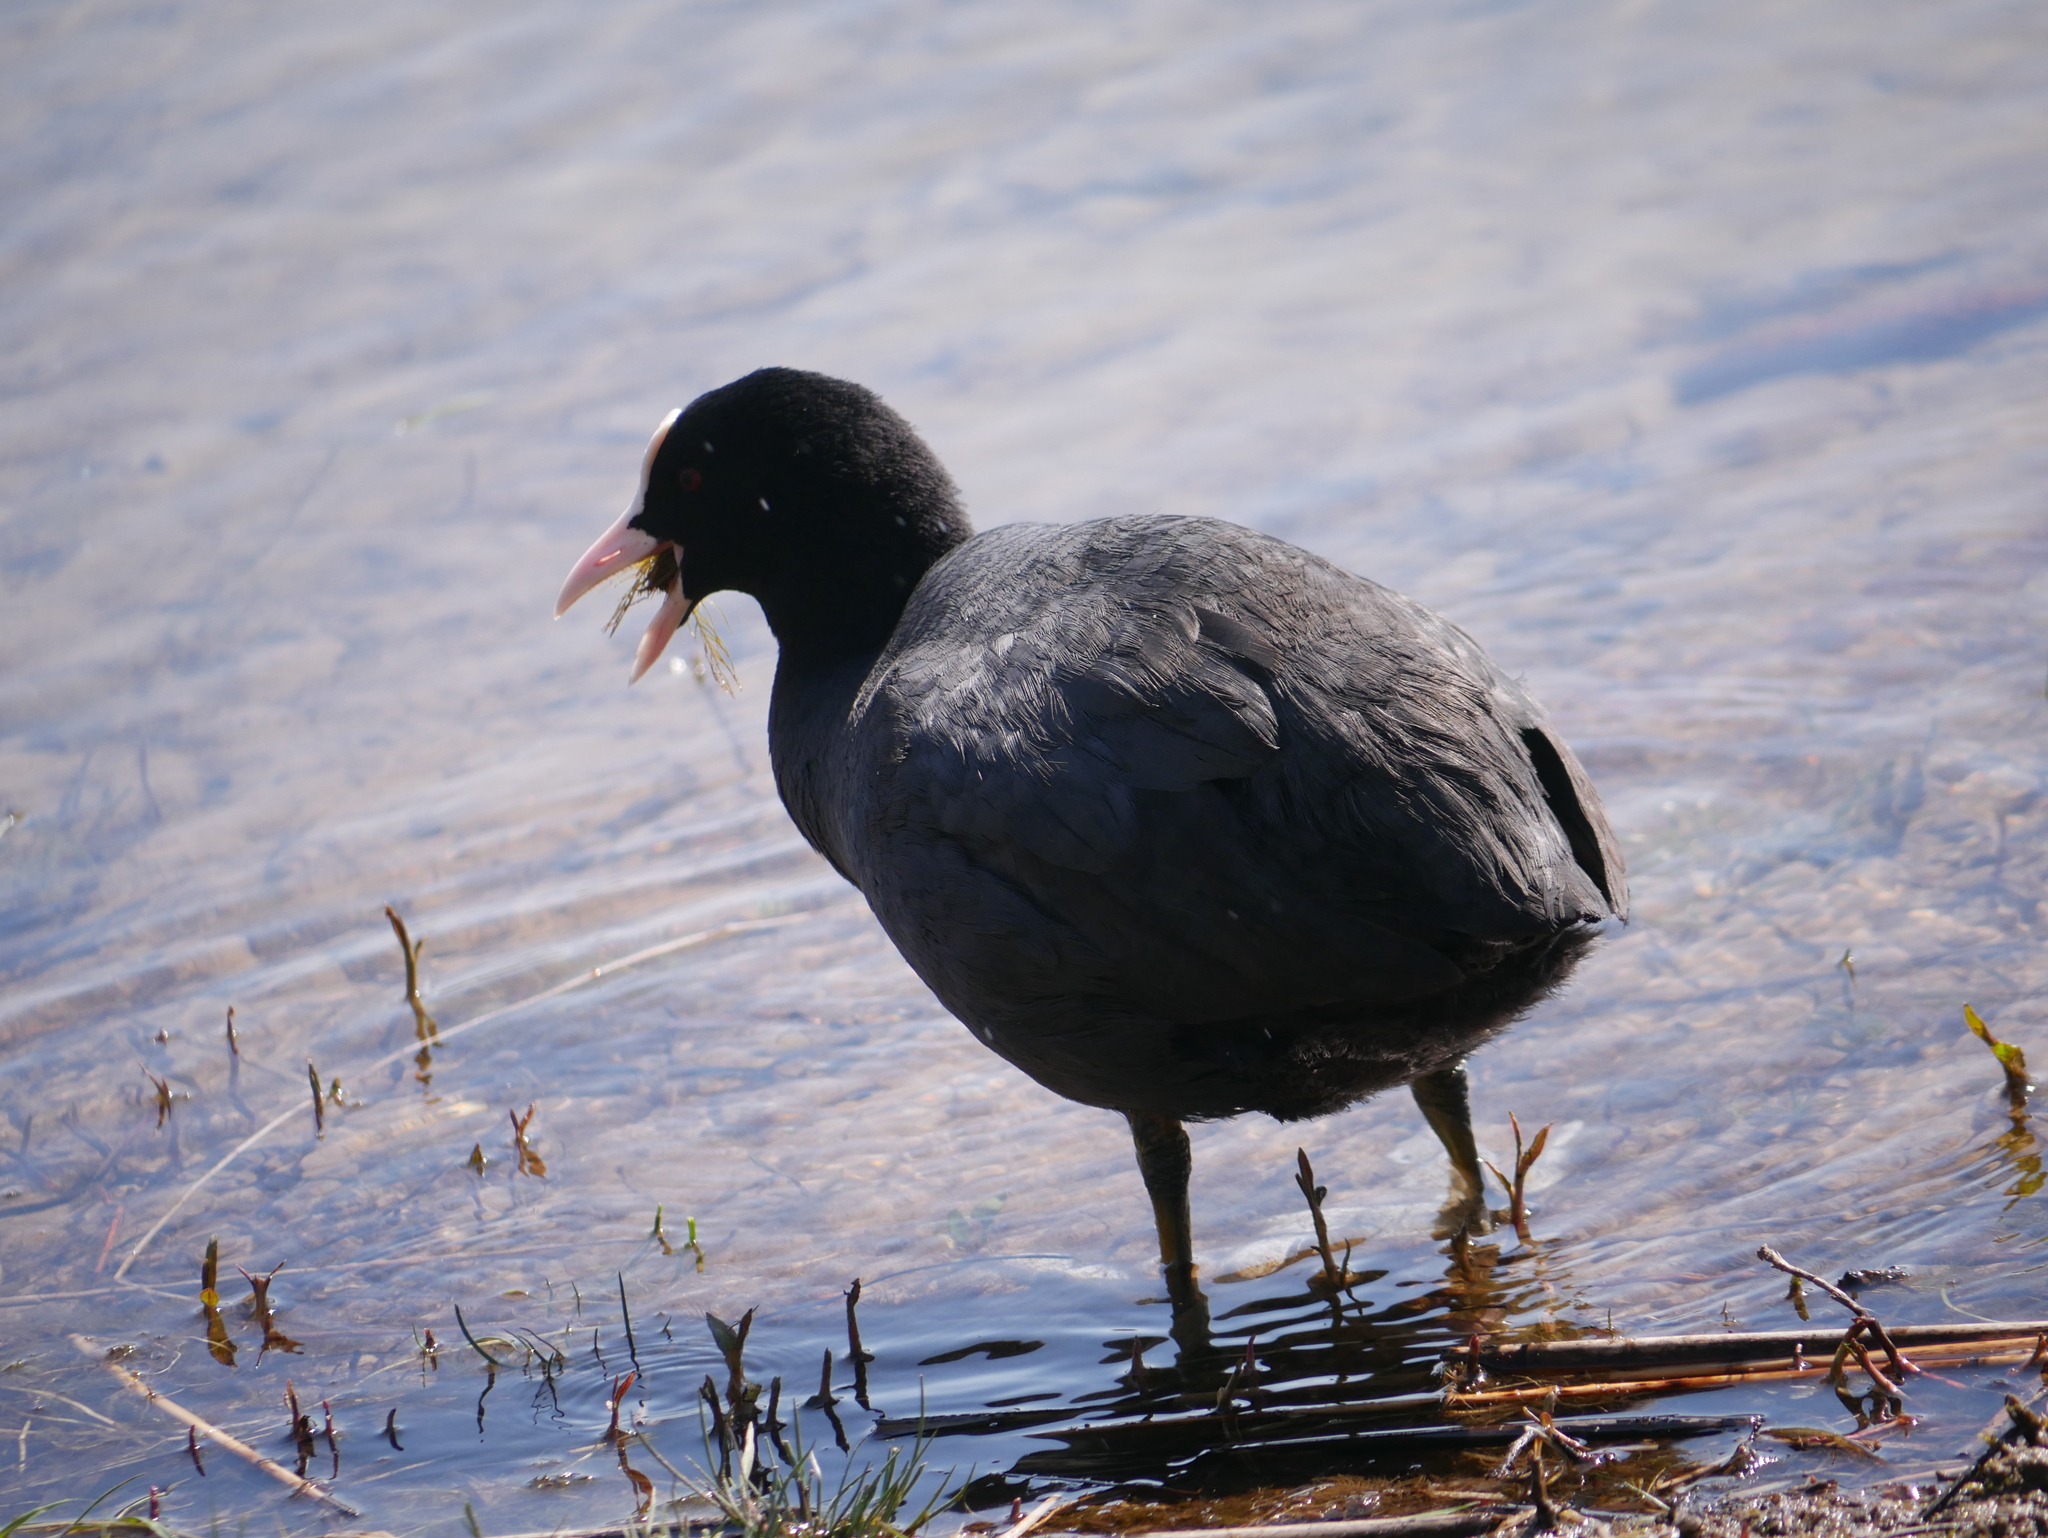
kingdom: Animalia
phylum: Chordata
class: Aves
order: Gruiformes
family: Rallidae
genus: Fulica
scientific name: Fulica atra
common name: Eurasian coot
